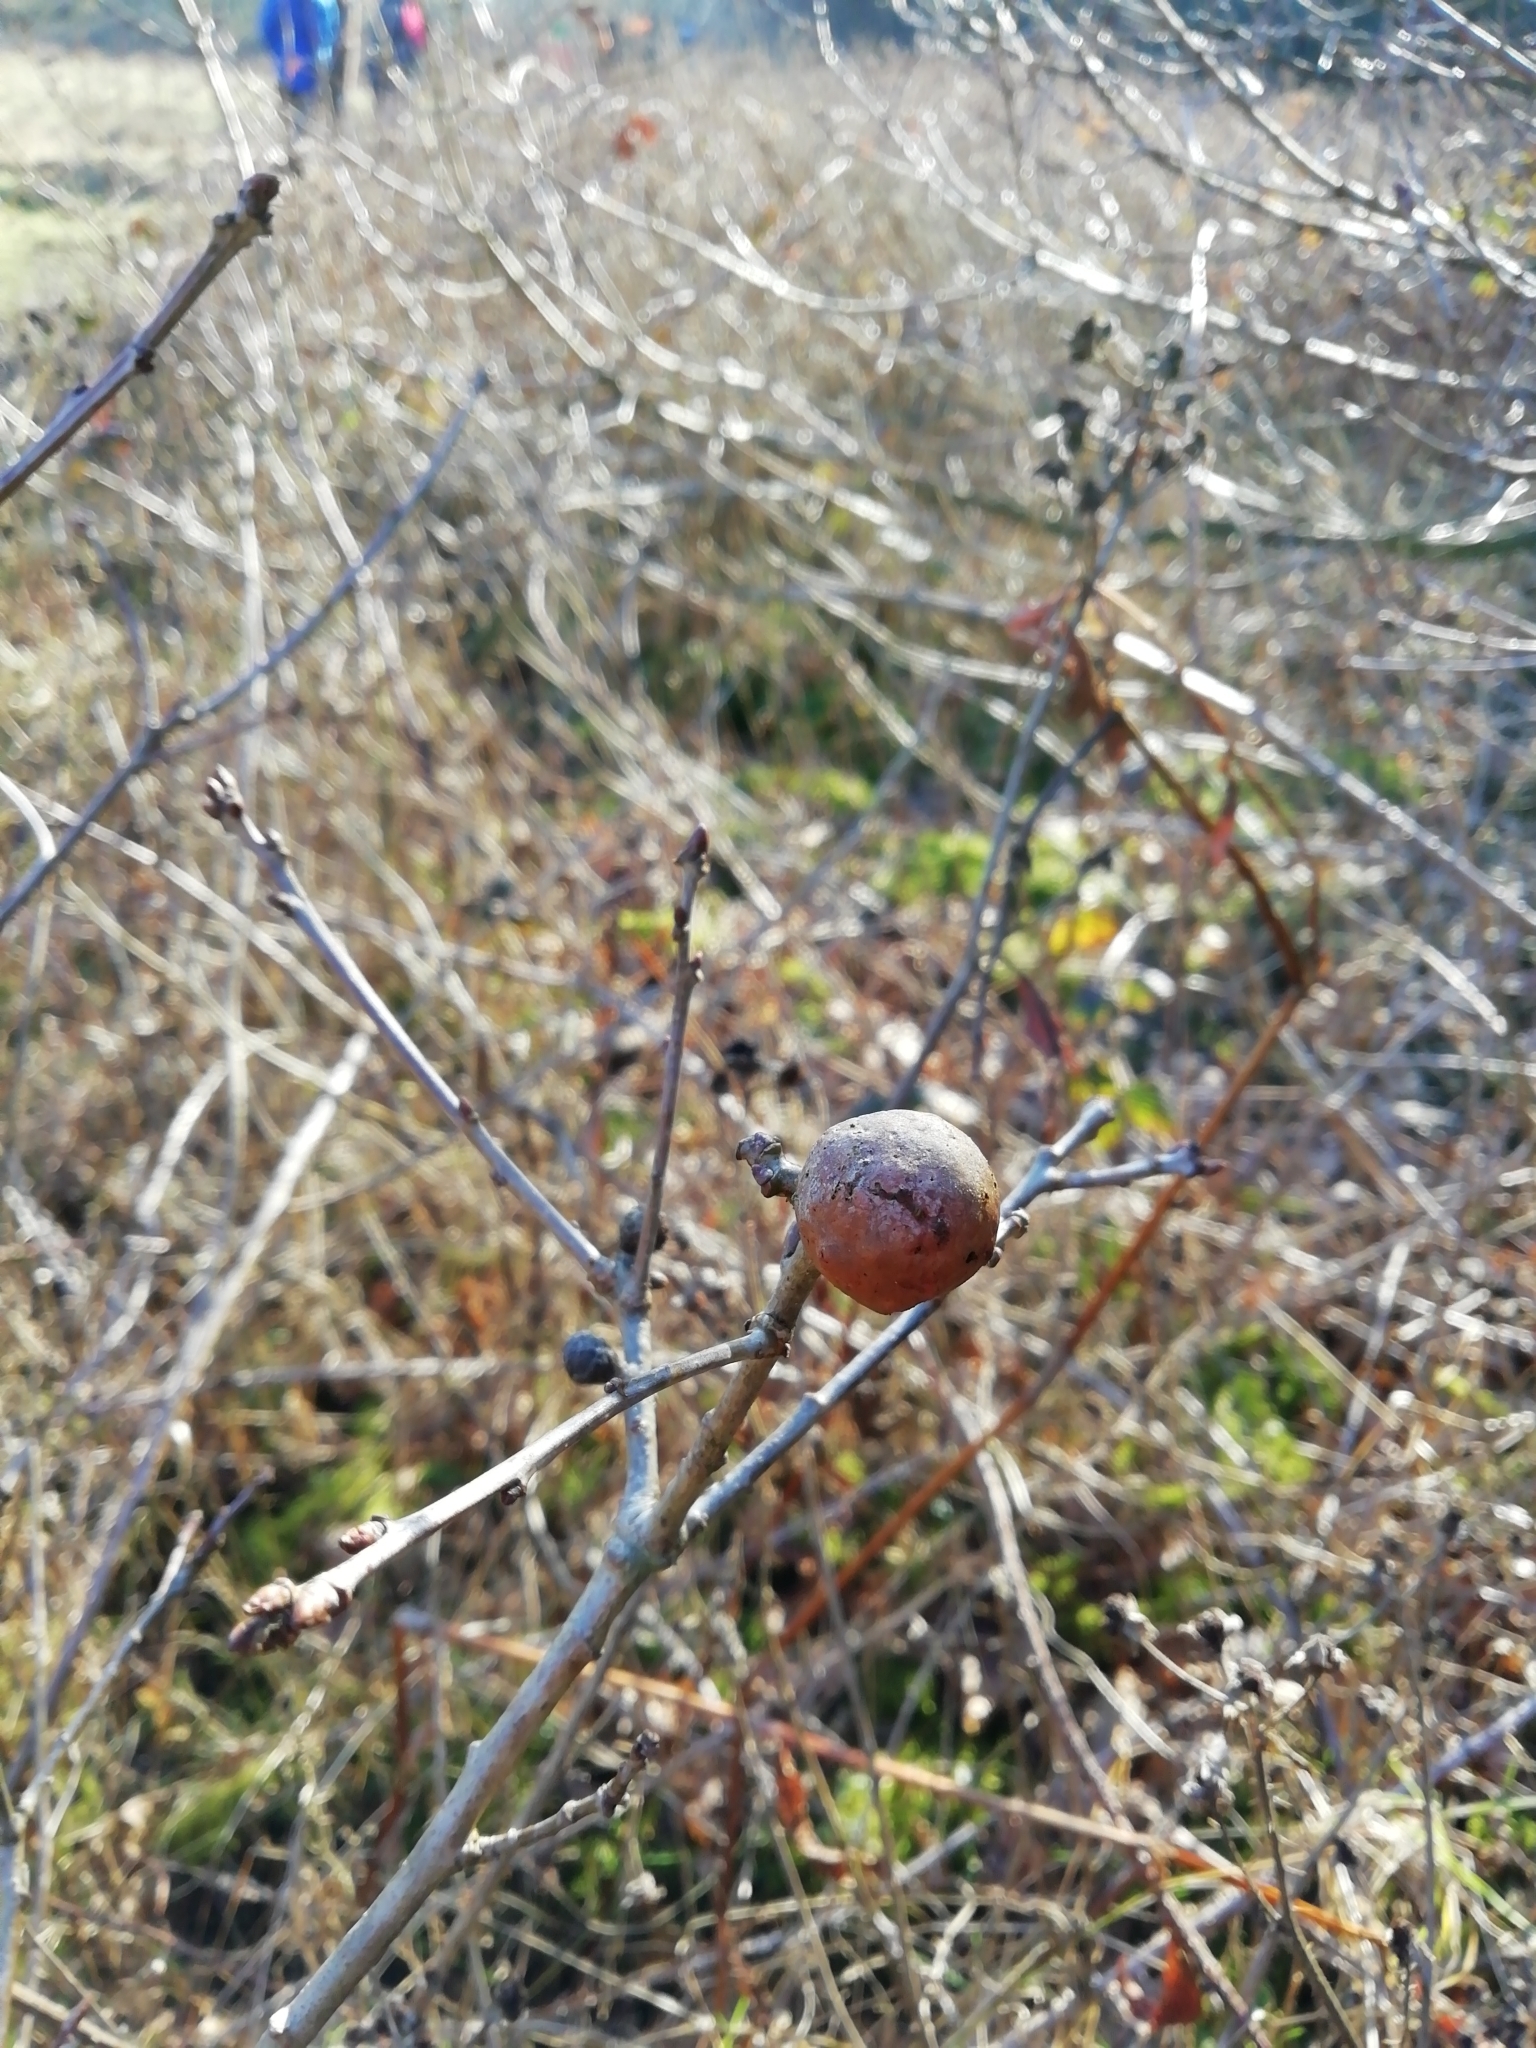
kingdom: Animalia
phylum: Arthropoda
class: Insecta
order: Hymenoptera
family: Cynipidae
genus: Andricus
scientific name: Andricus kollari
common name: Marble gall
